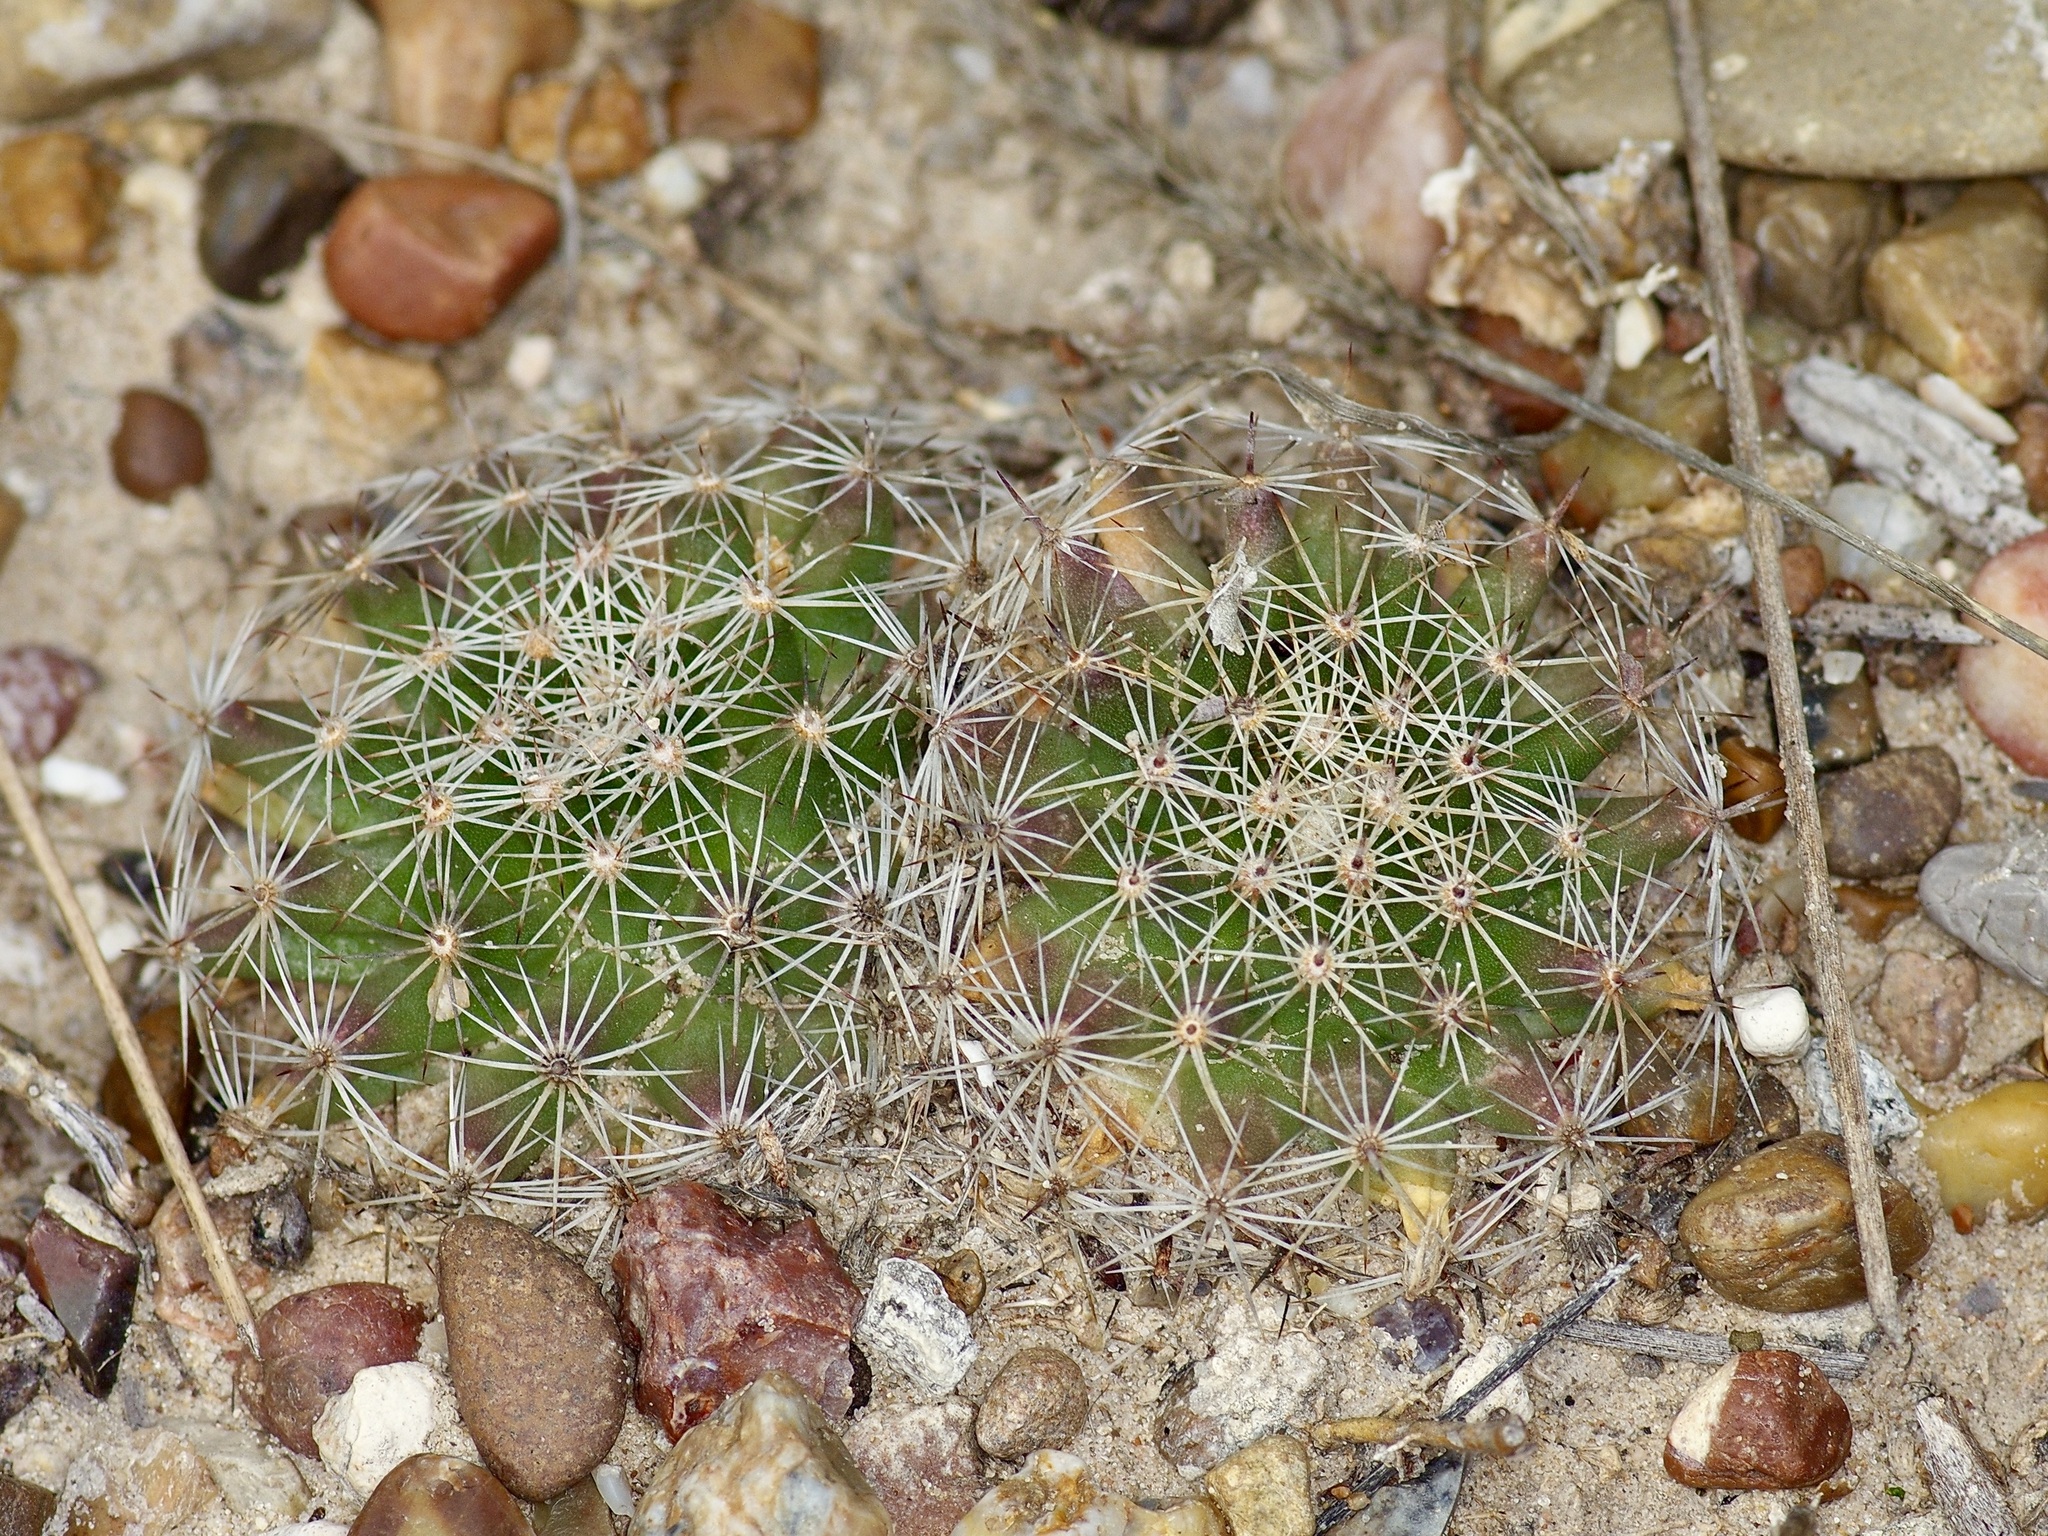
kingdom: Plantae
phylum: Tracheophyta
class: Magnoliopsida
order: Caryophyllales
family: Cactaceae
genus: Mammillaria
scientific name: Mammillaria heyderi
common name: Little nipple cactus
